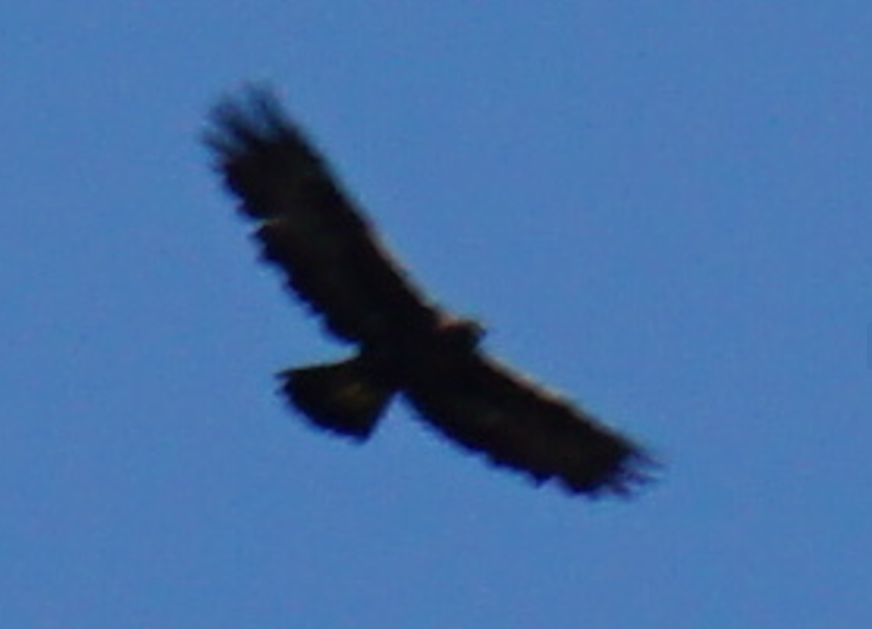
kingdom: Animalia
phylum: Chordata
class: Aves
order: Accipitriformes
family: Accipitridae
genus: Aquila
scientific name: Aquila chrysaetos
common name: Golden eagle
